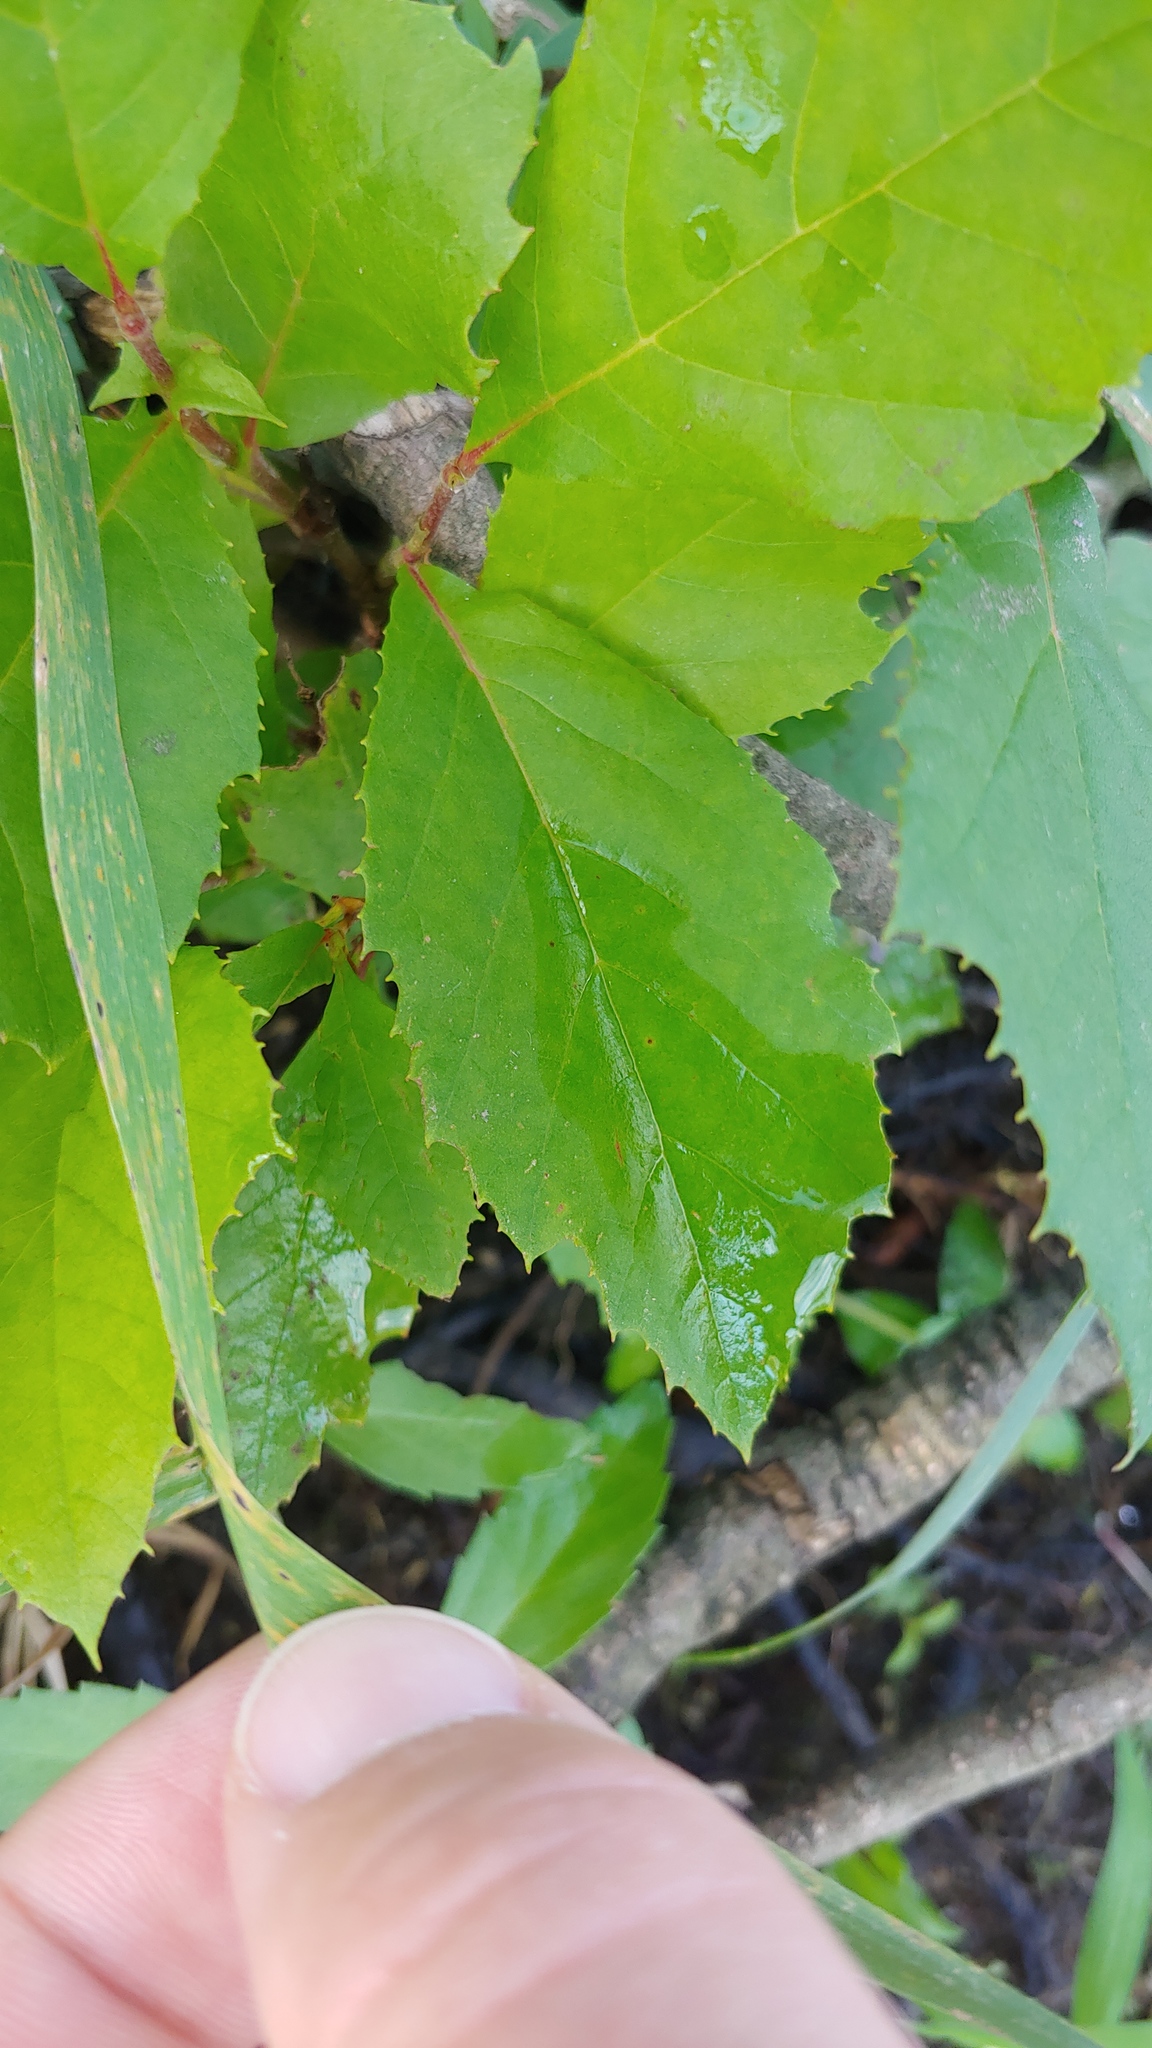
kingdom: Plantae
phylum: Tracheophyta
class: Magnoliopsida
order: Proteales
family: Platanaceae
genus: Platanus
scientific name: Platanus occidentalis
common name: American sycamore
